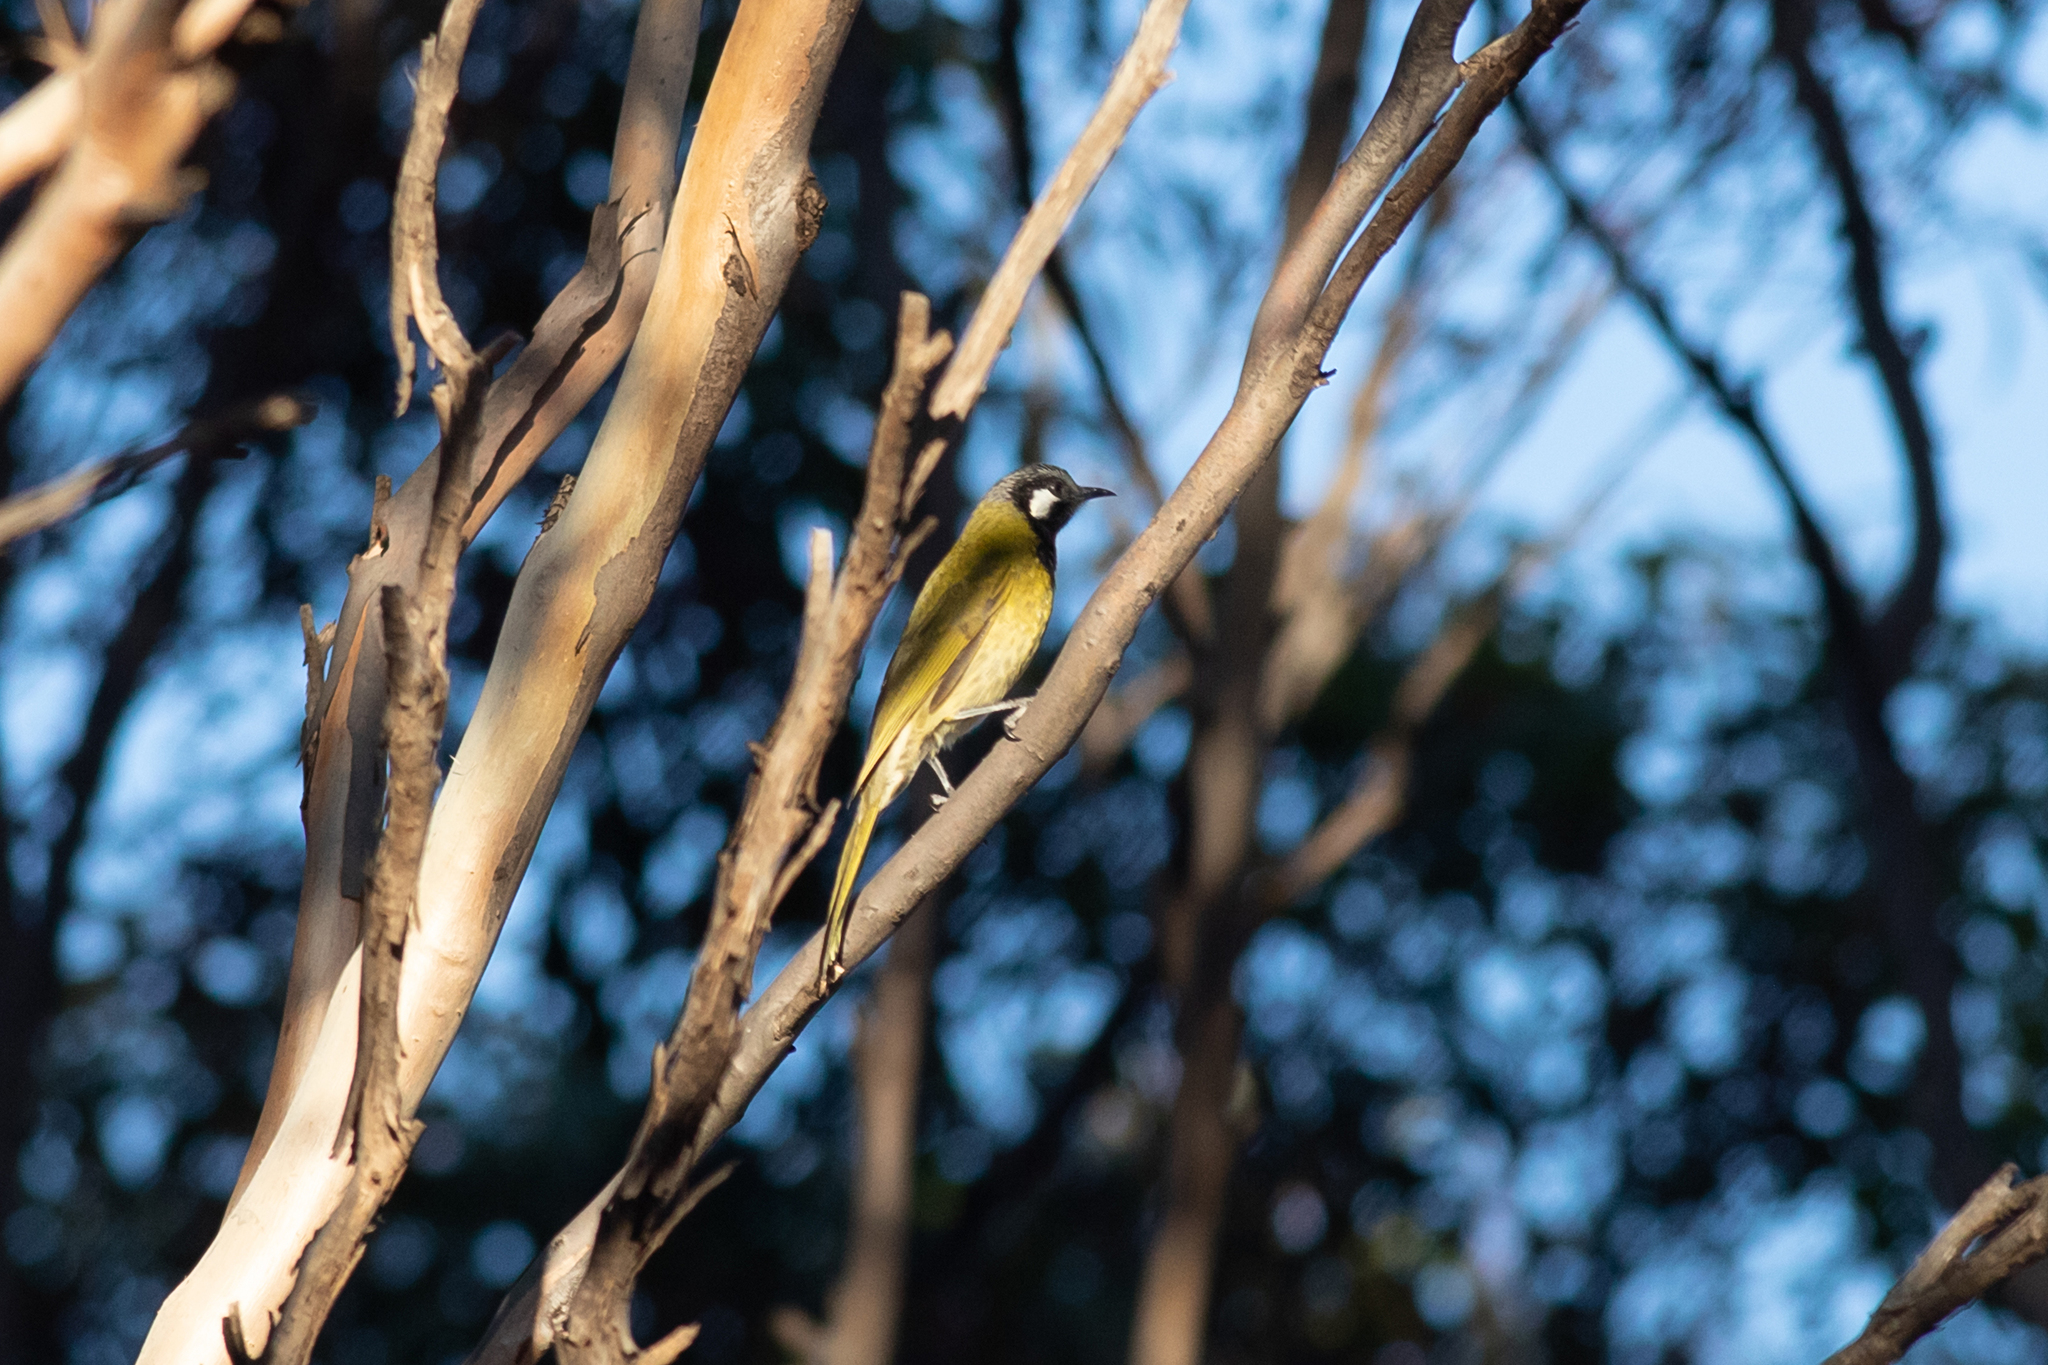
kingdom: Animalia
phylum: Chordata
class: Aves
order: Passeriformes
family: Meliphagidae
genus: Nesoptilotis
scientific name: Nesoptilotis leucotis
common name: White-eared honeyeater
